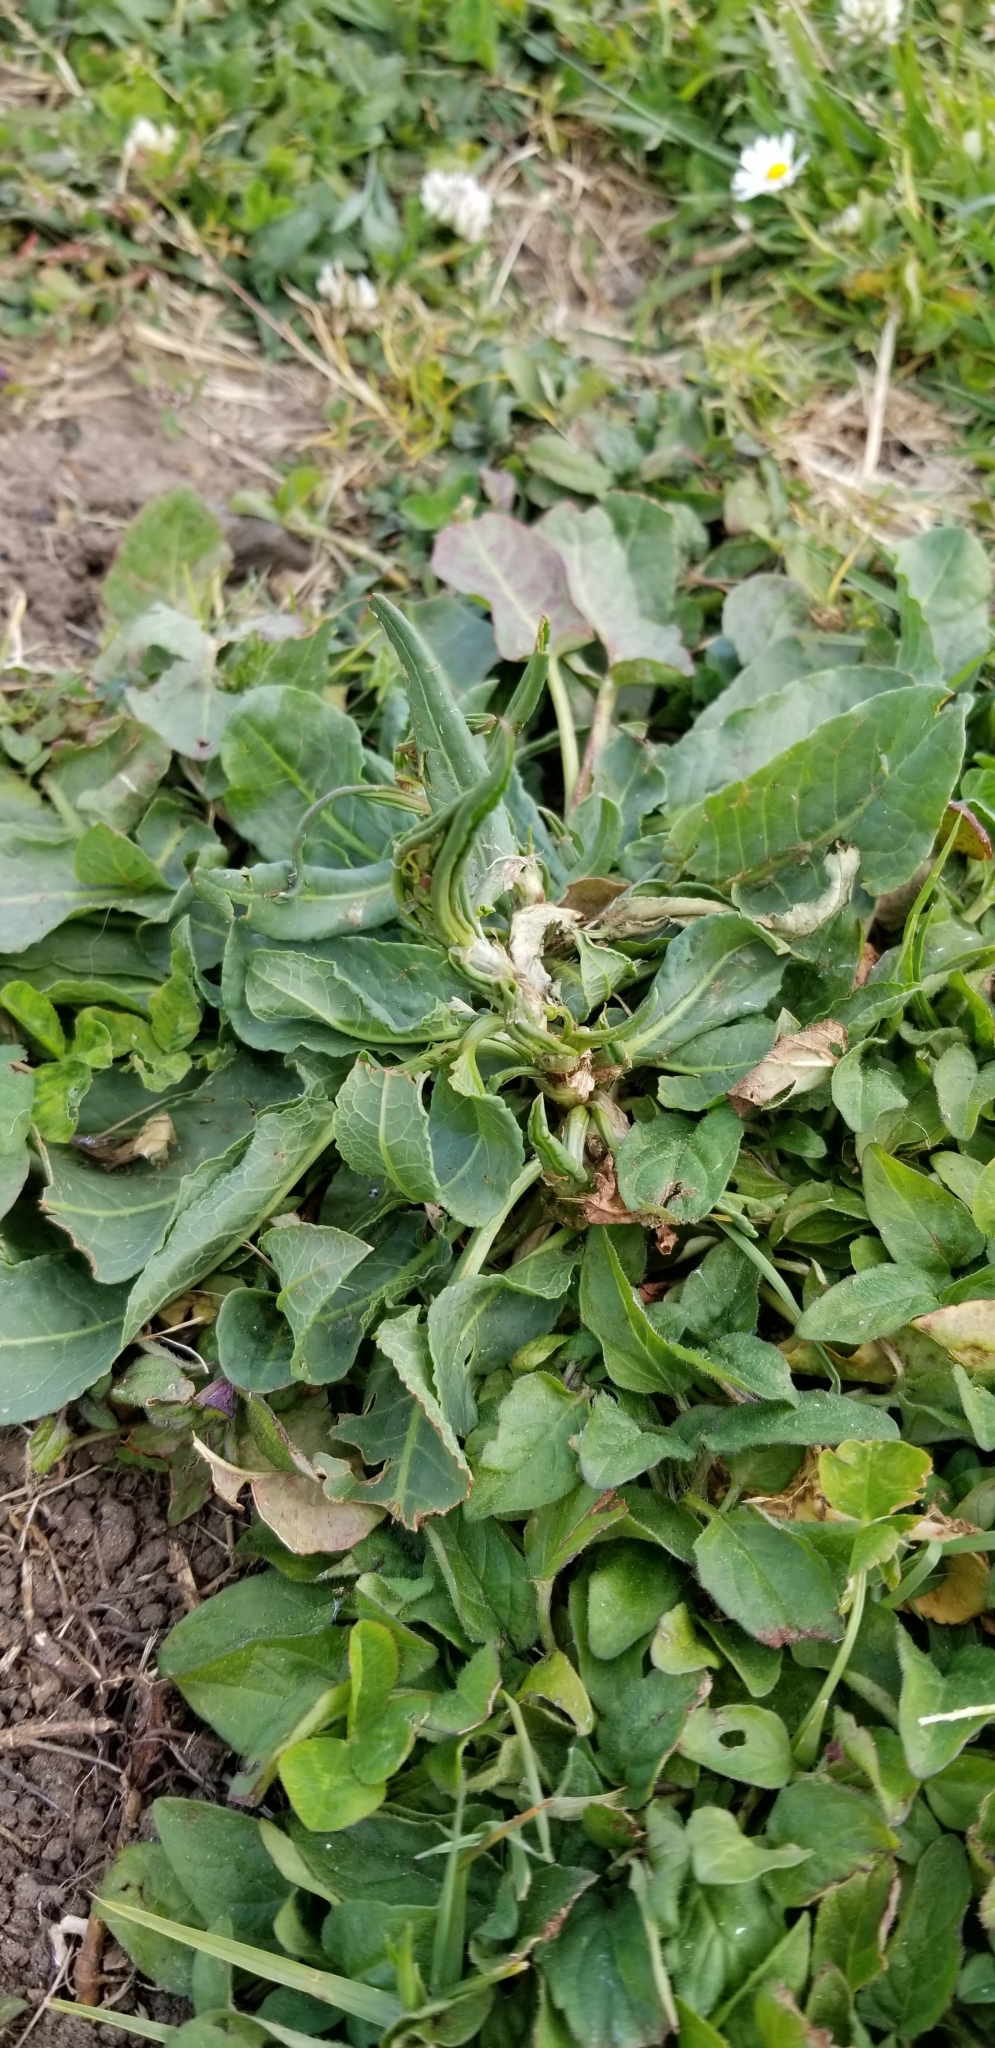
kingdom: Plantae
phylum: Tracheophyta
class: Magnoliopsida
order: Caryophyllales
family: Polygonaceae
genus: Rumex
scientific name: Rumex crispus
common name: Curled dock
